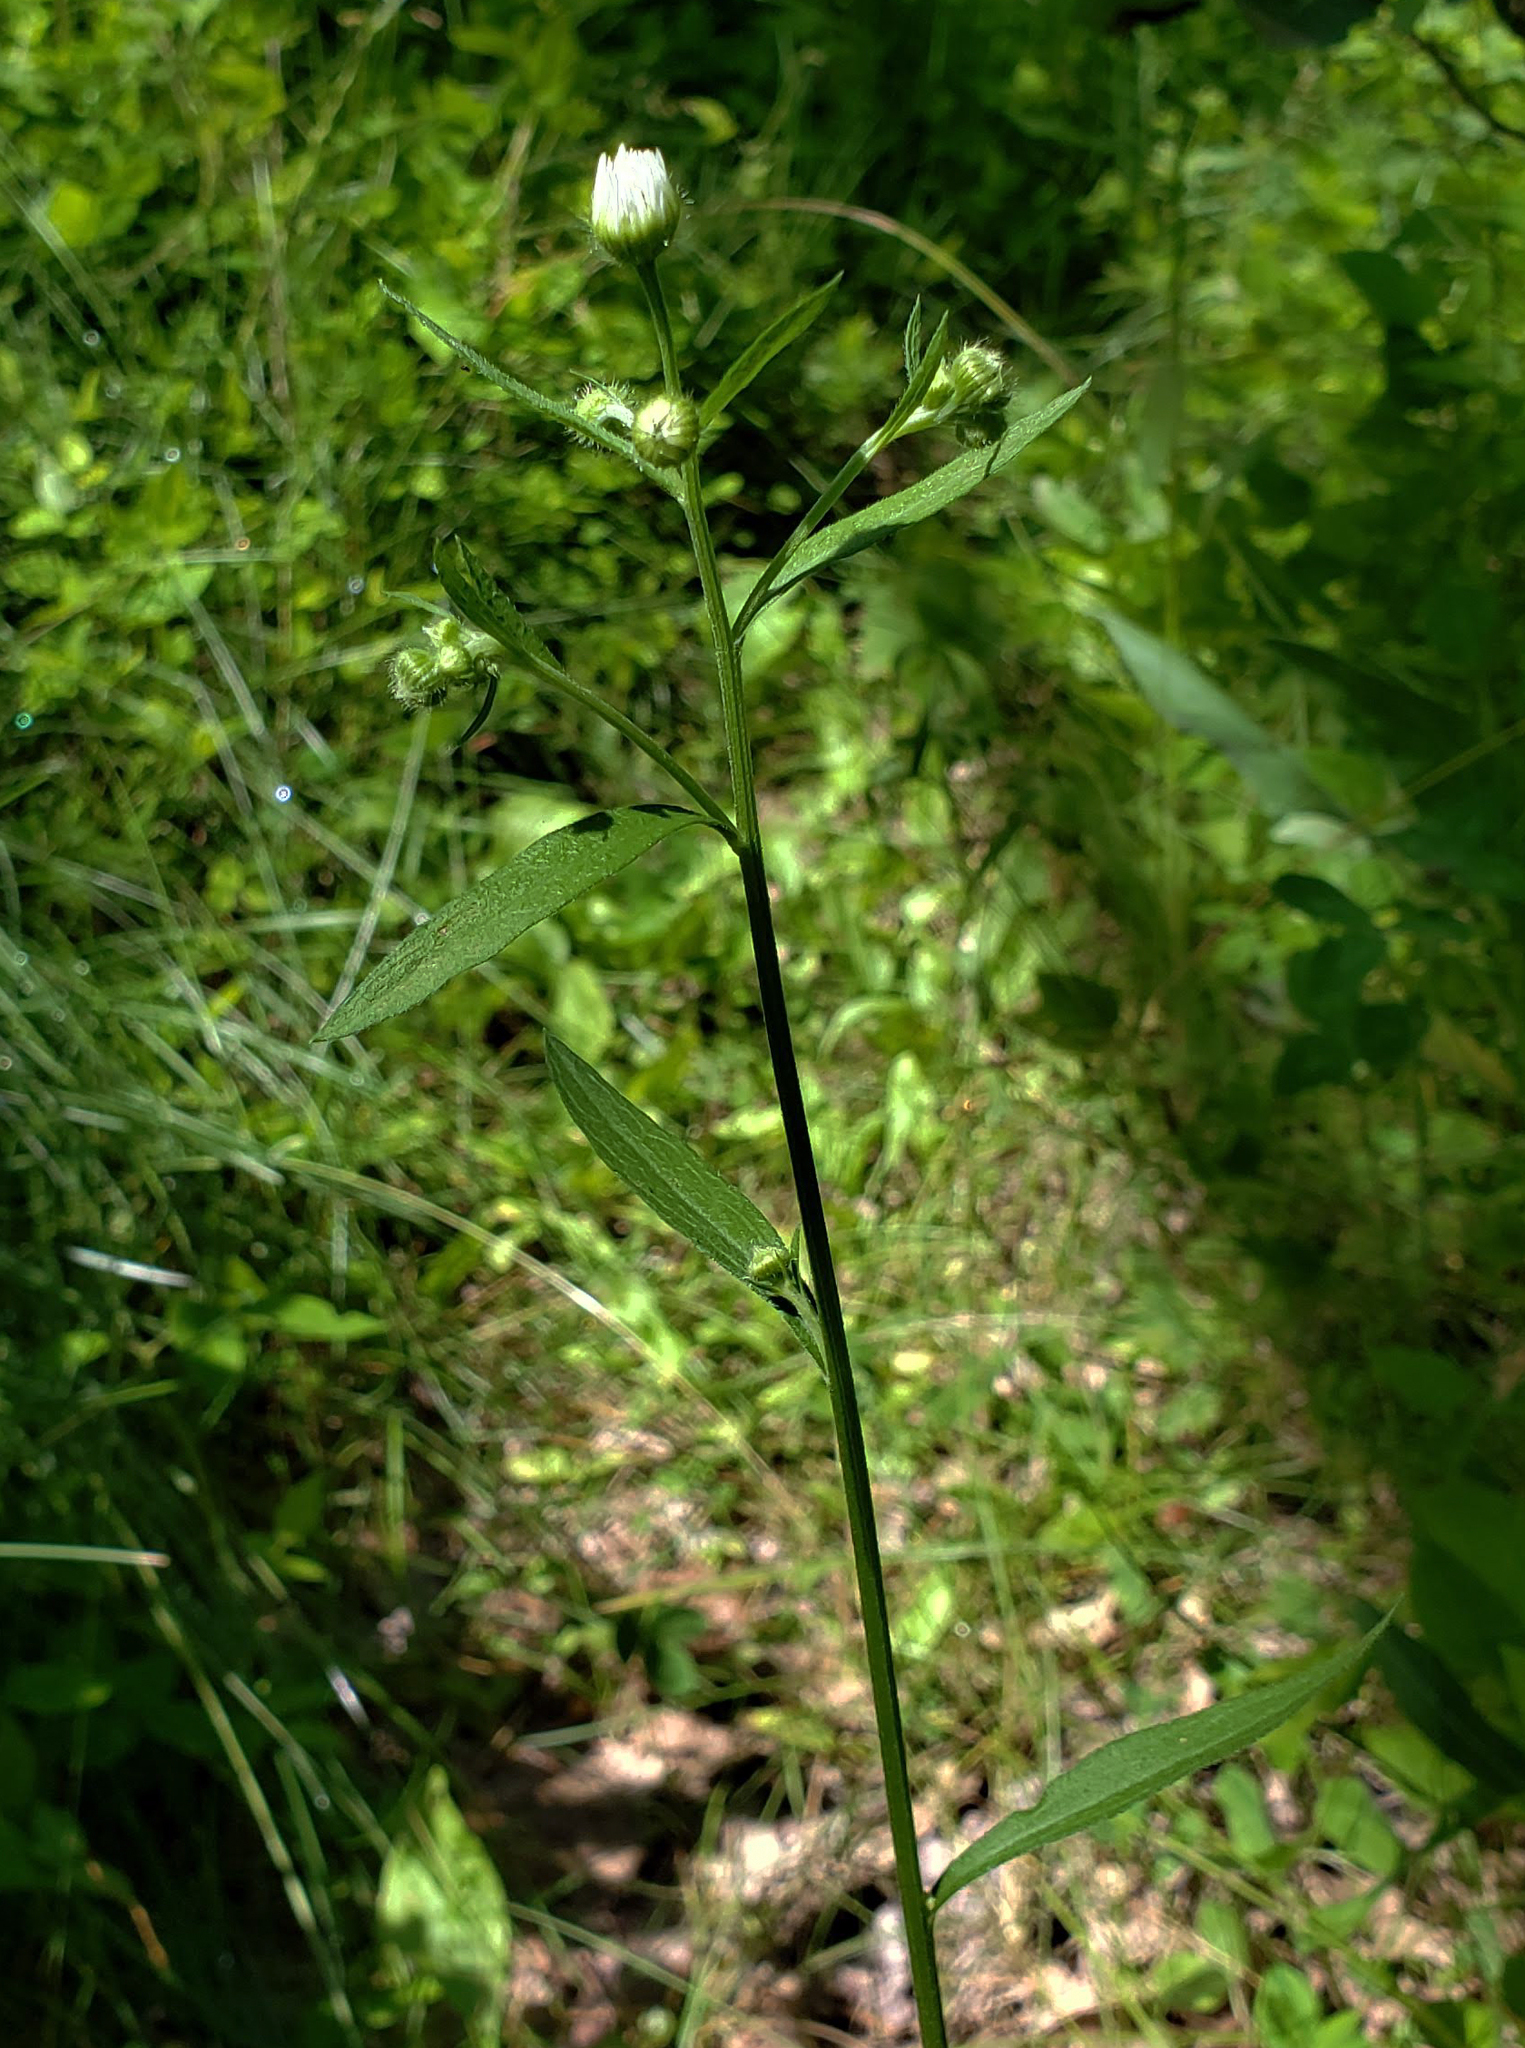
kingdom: Plantae
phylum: Tracheophyta
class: Magnoliopsida
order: Asterales
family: Asteraceae
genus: Erigeron
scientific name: Erigeron strigosus
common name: Common eastern fleabane
